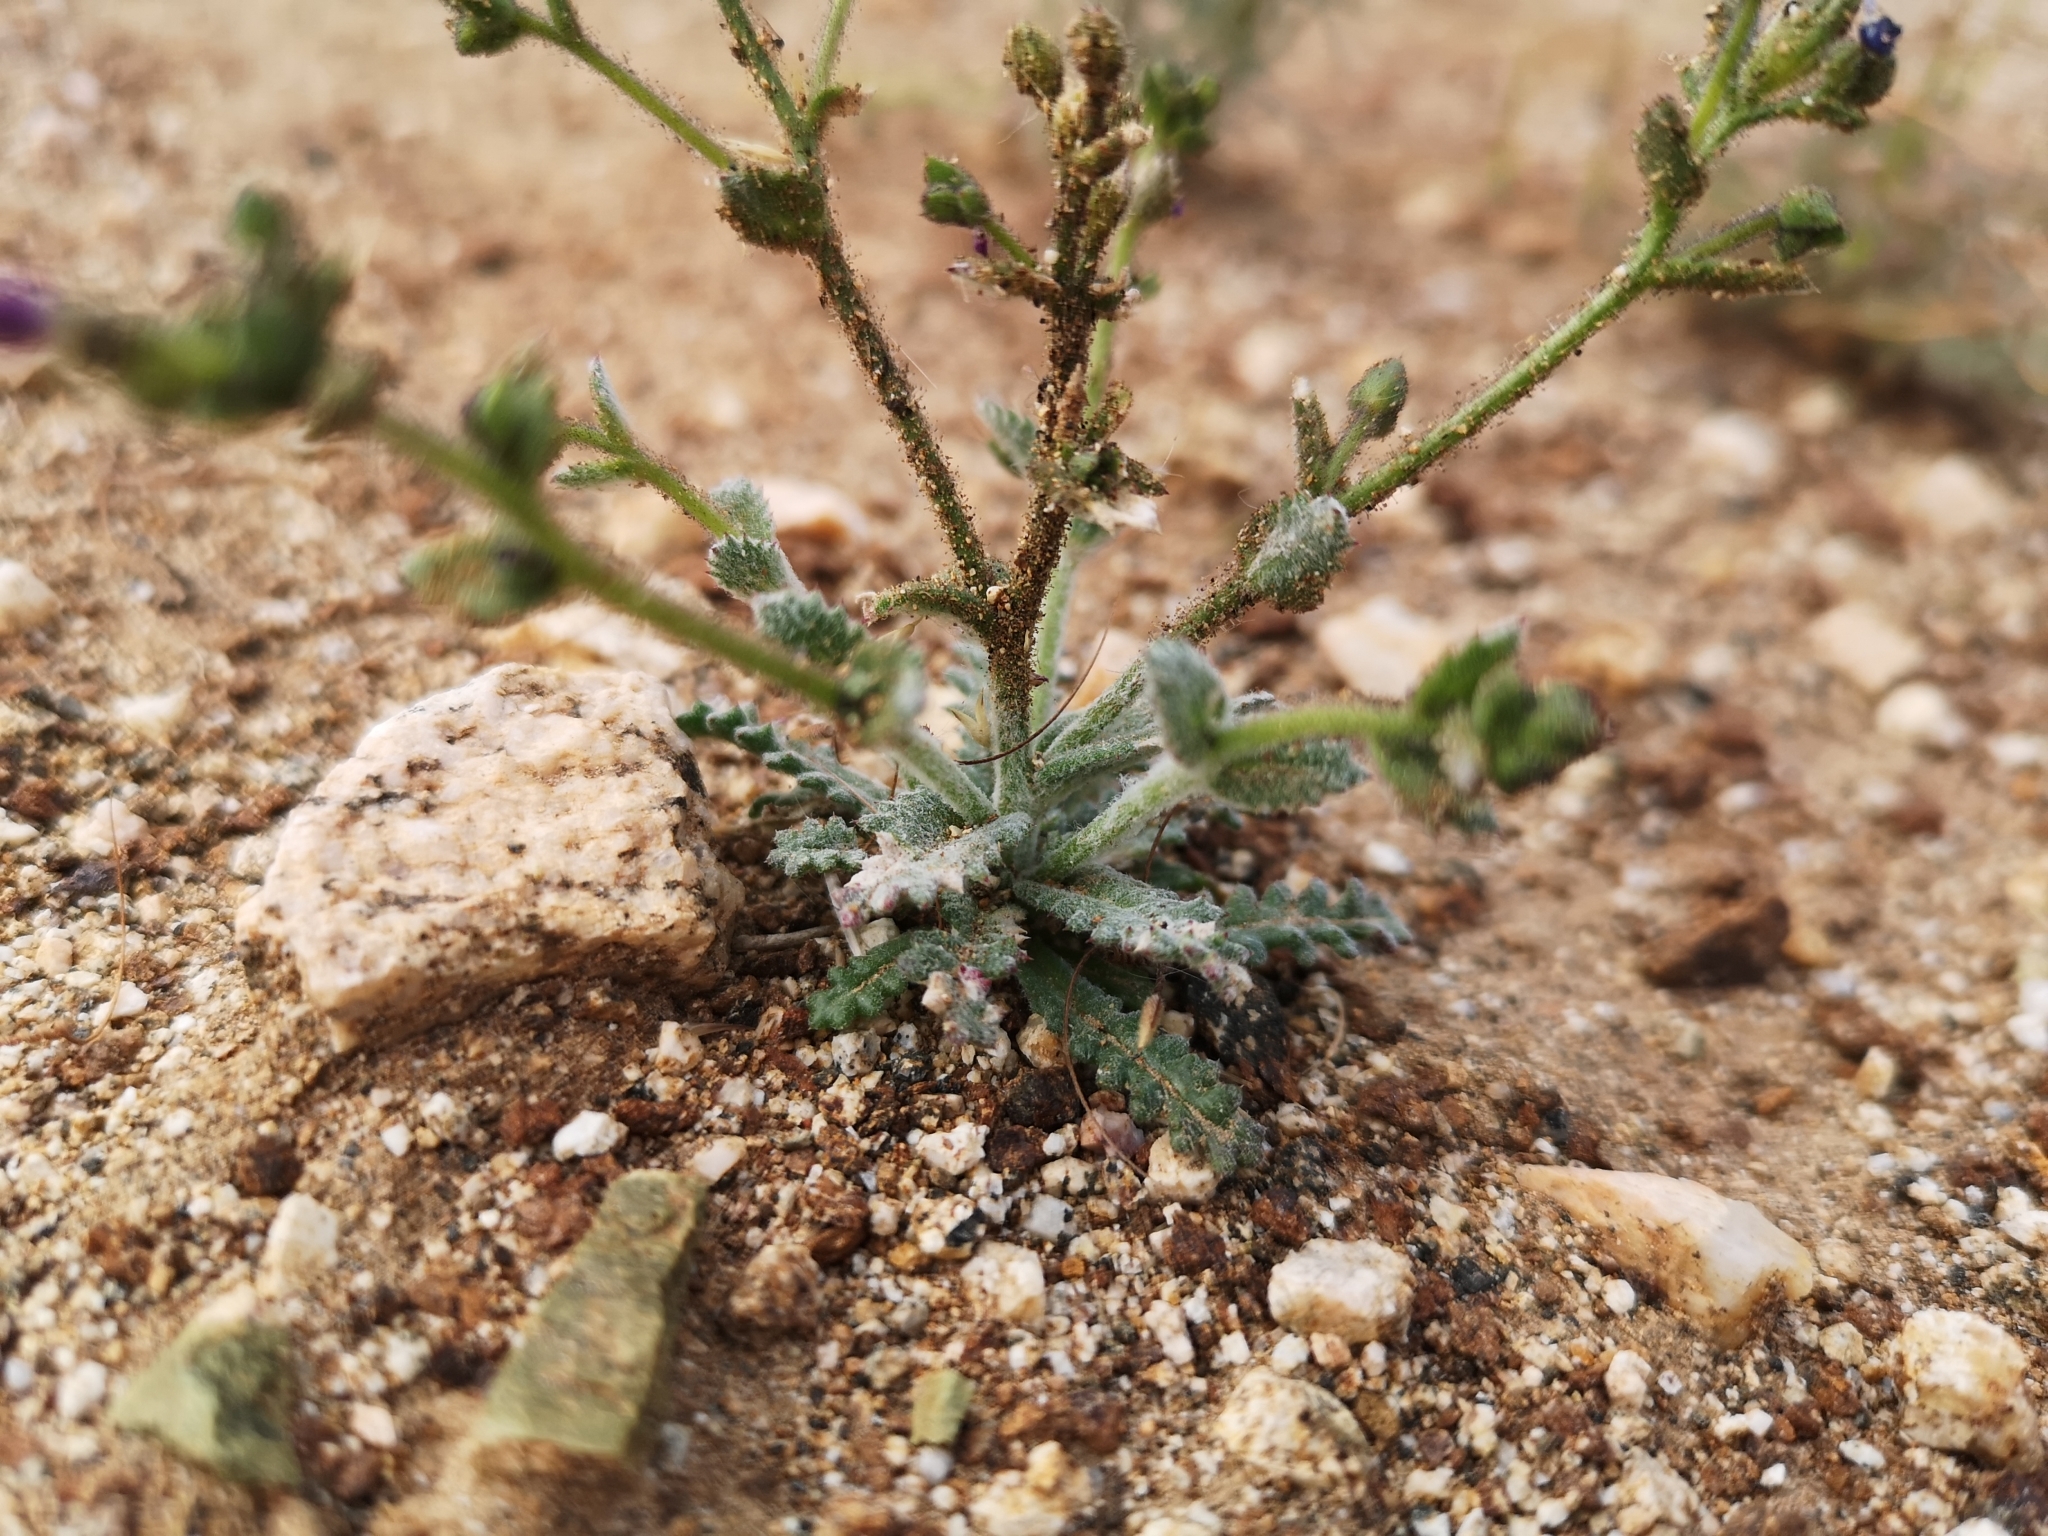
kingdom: Plantae
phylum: Tracheophyta
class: Magnoliopsida
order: Ericales
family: Polemoniaceae
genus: Gilia
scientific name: Gilia modocensis
